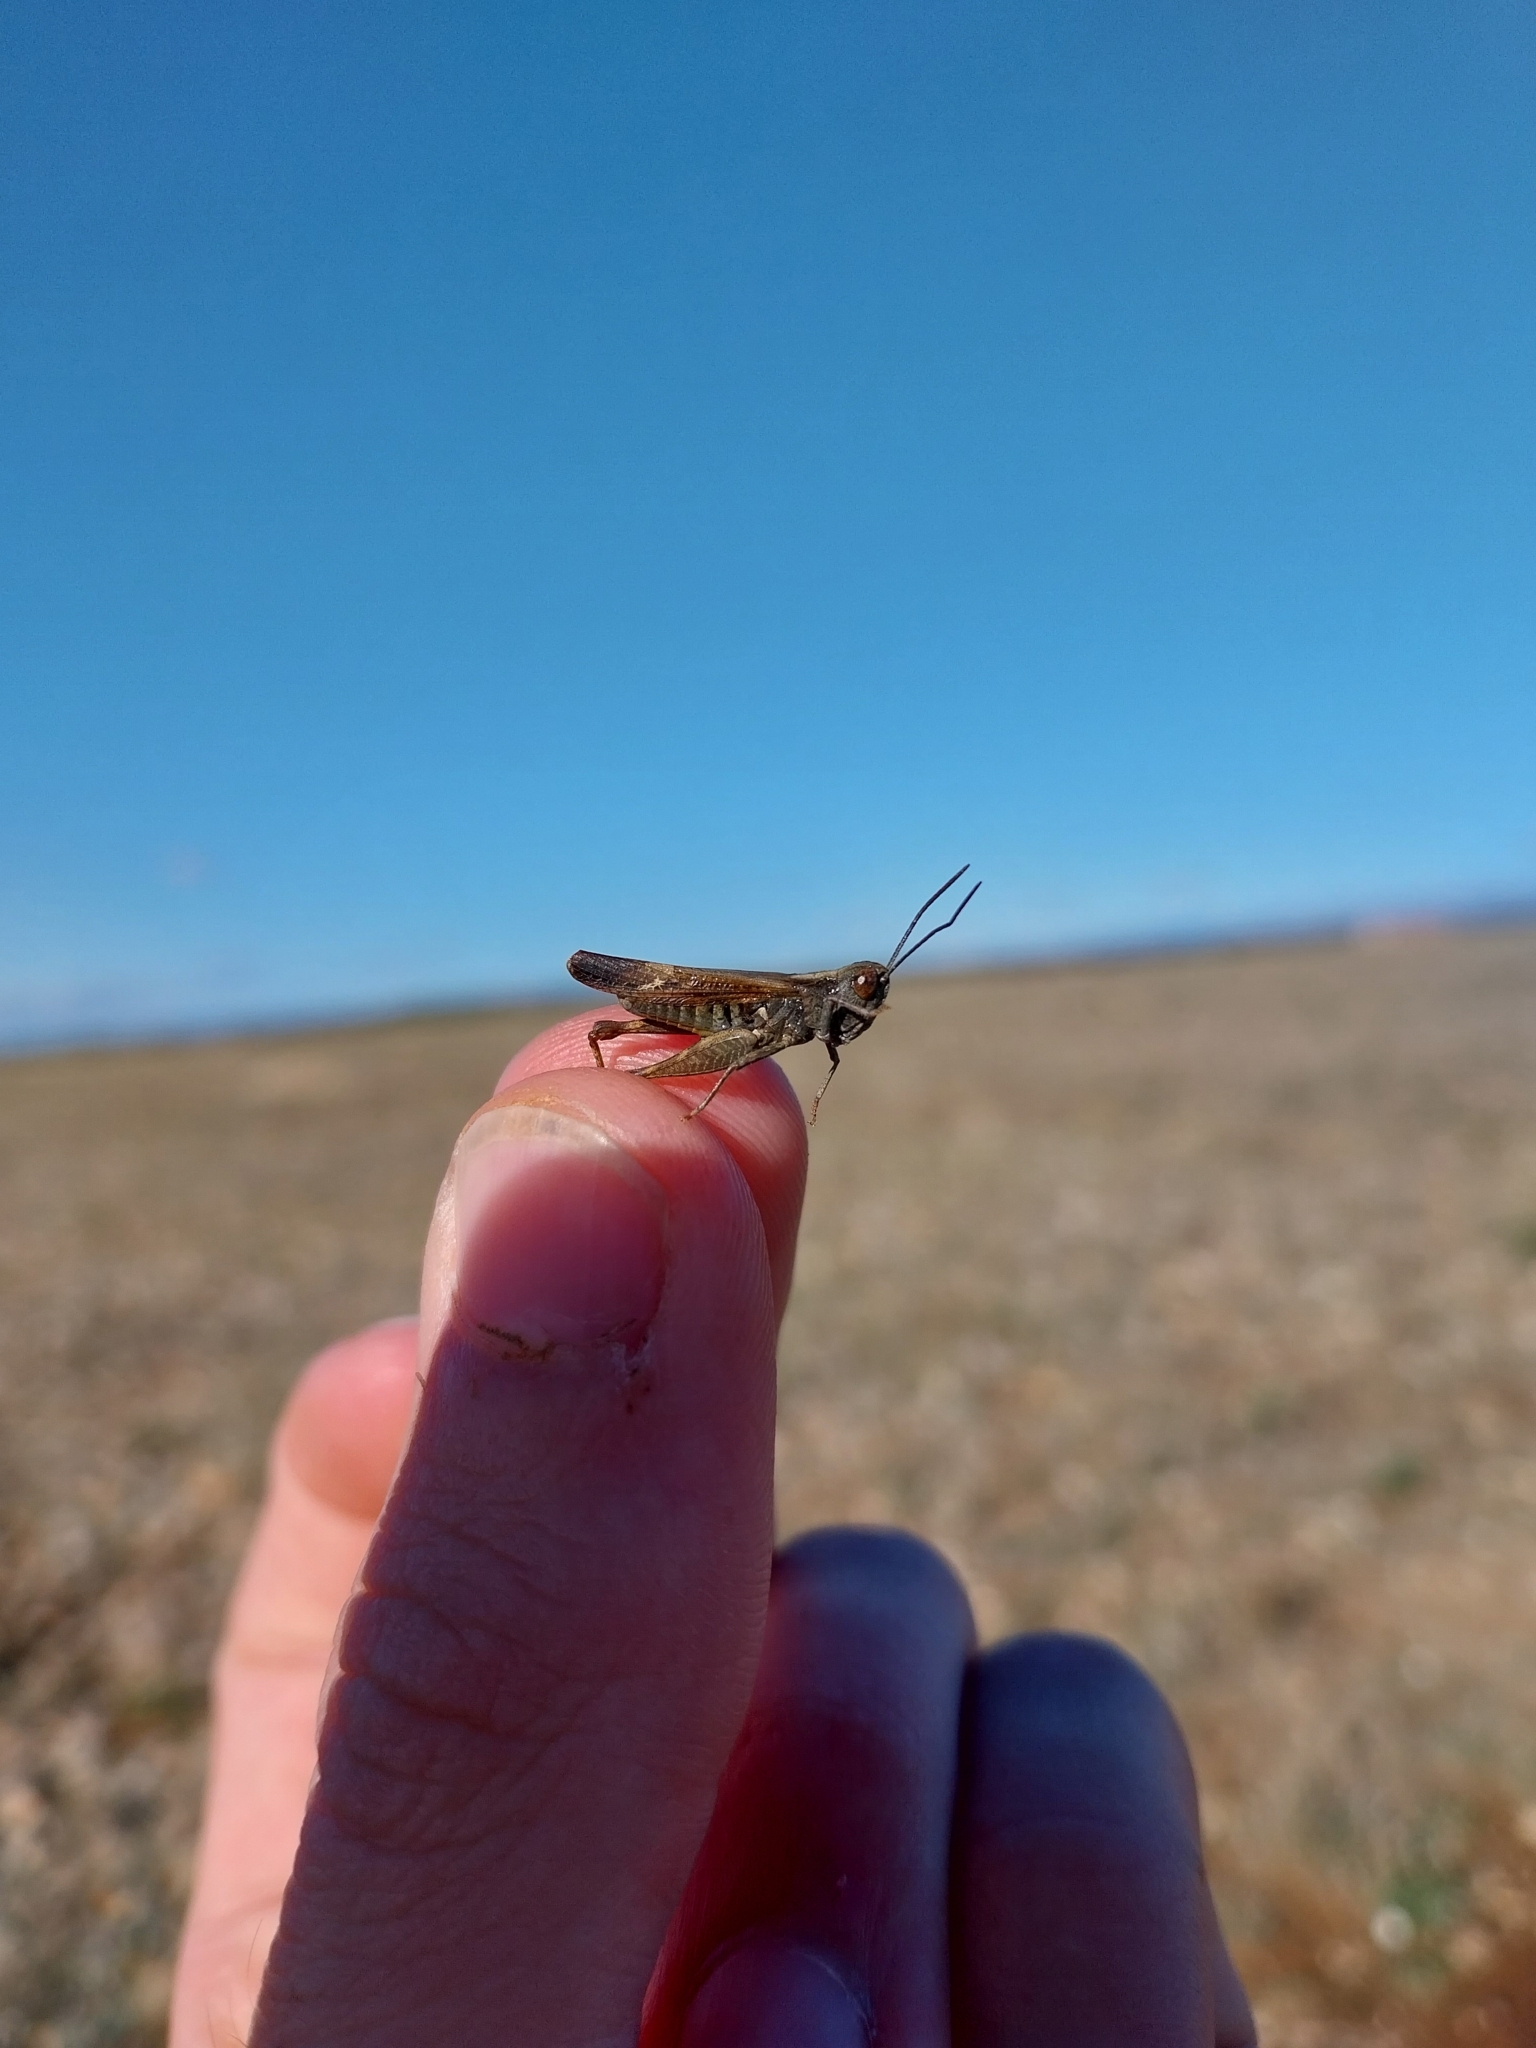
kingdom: Animalia
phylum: Arthropoda
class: Insecta
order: Orthoptera
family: Acrididae
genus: Omocestus
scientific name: Omocestus raymondi
